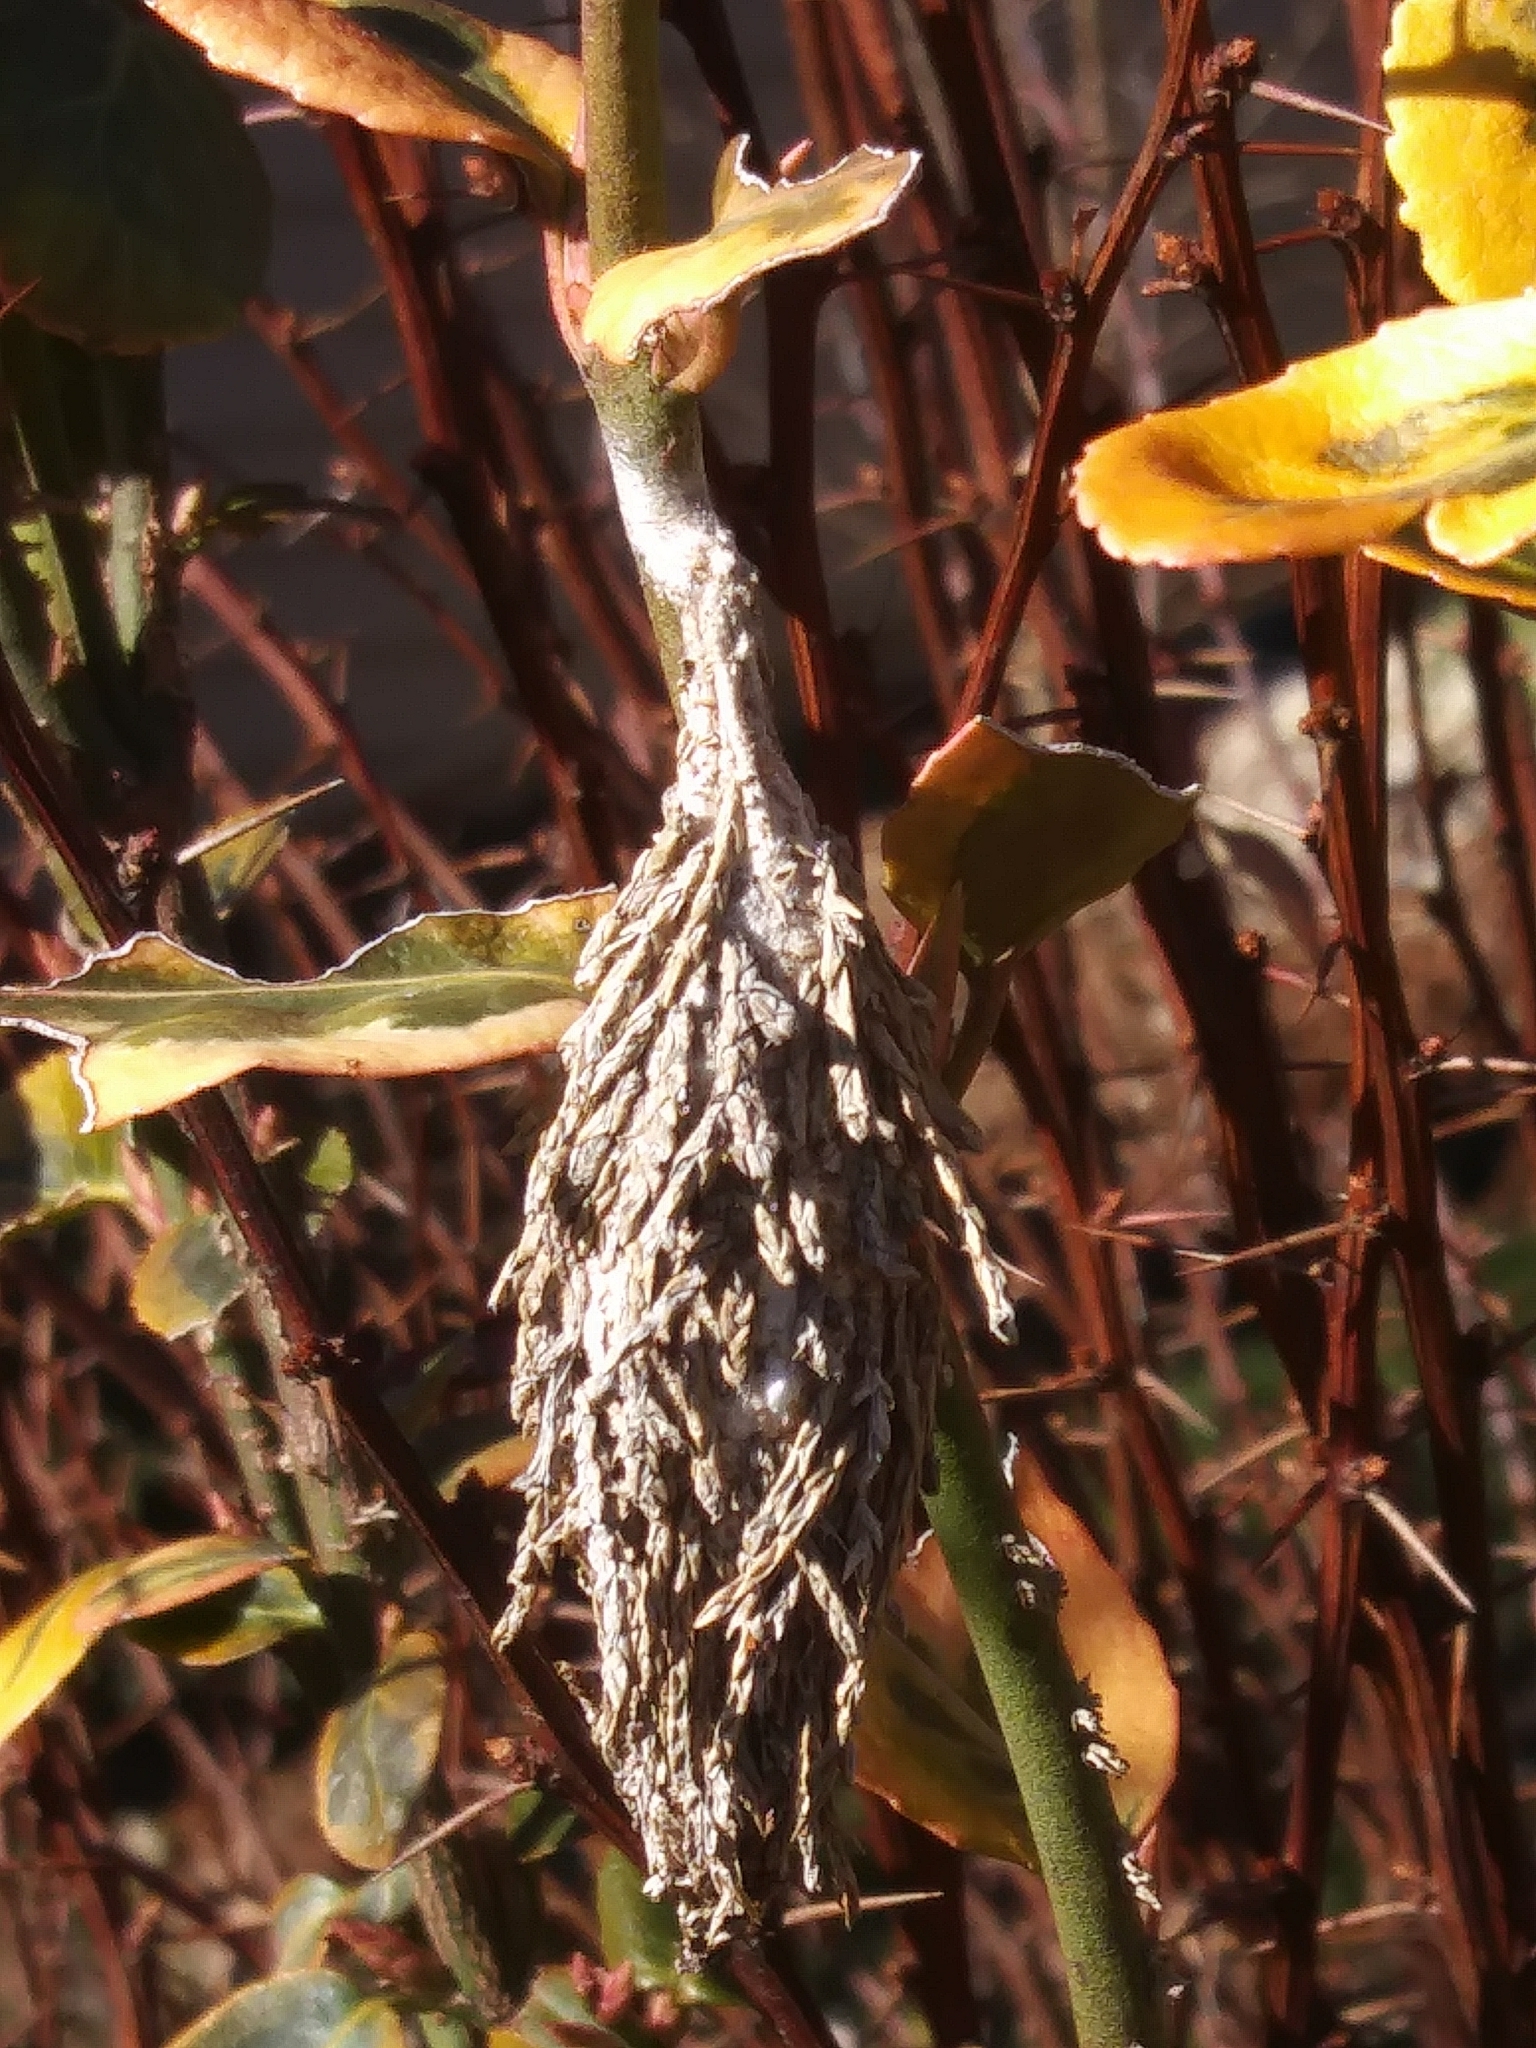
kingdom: Animalia
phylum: Arthropoda
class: Insecta
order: Lepidoptera
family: Psychidae
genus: Thyridopteryx
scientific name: Thyridopteryx ephemeraeformis
